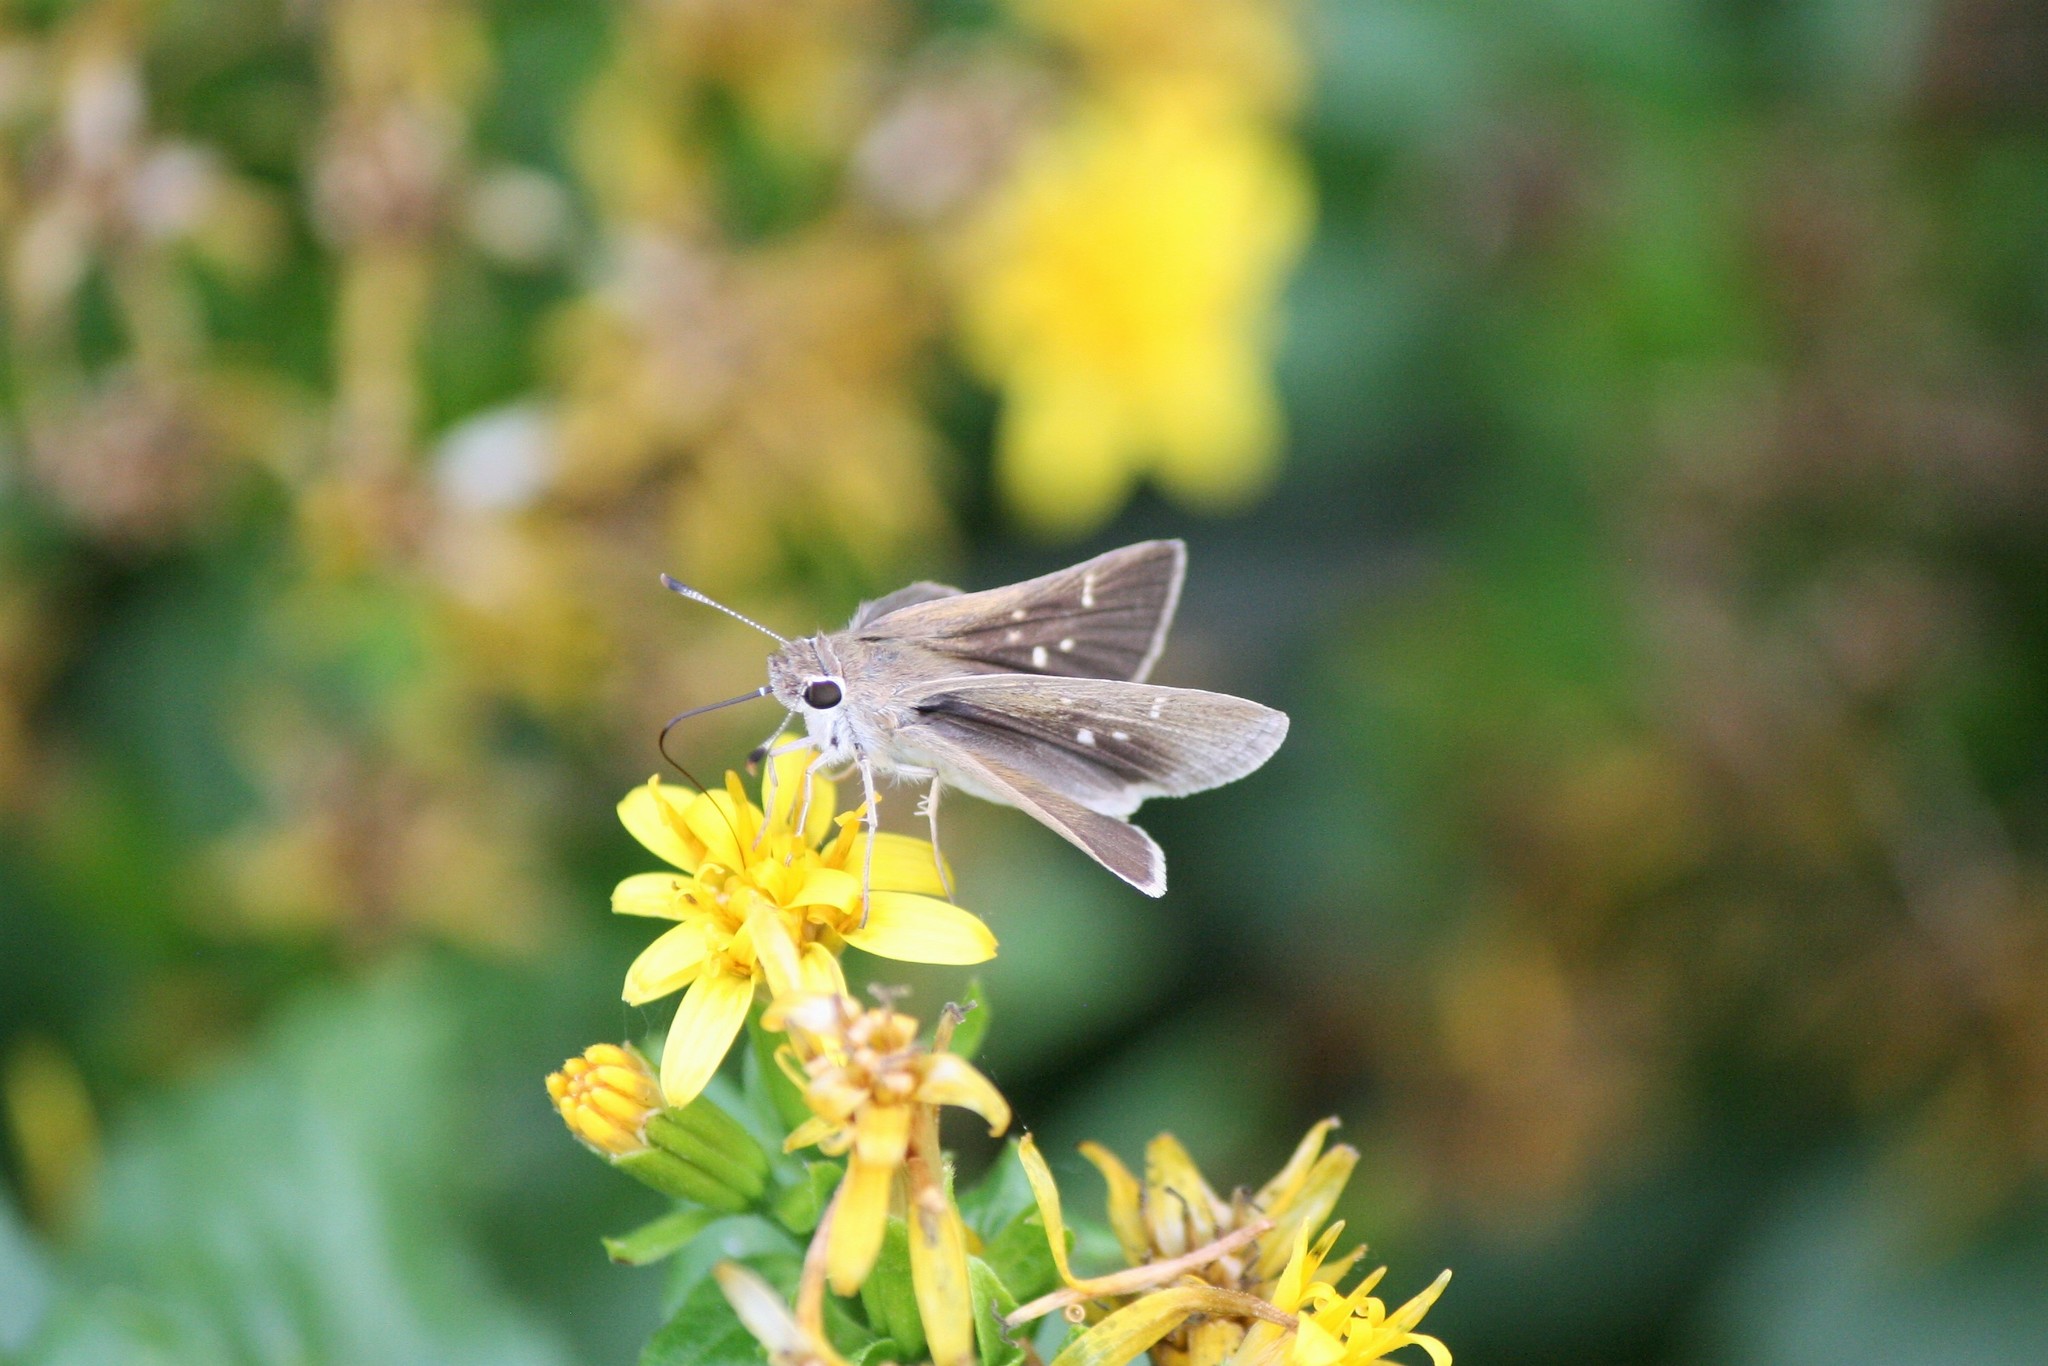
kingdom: Animalia
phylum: Arthropoda
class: Insecta
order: Lepidoptera
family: Hesperiidae
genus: Lerodea
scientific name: Lerodea eufala
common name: Eufala skipper
